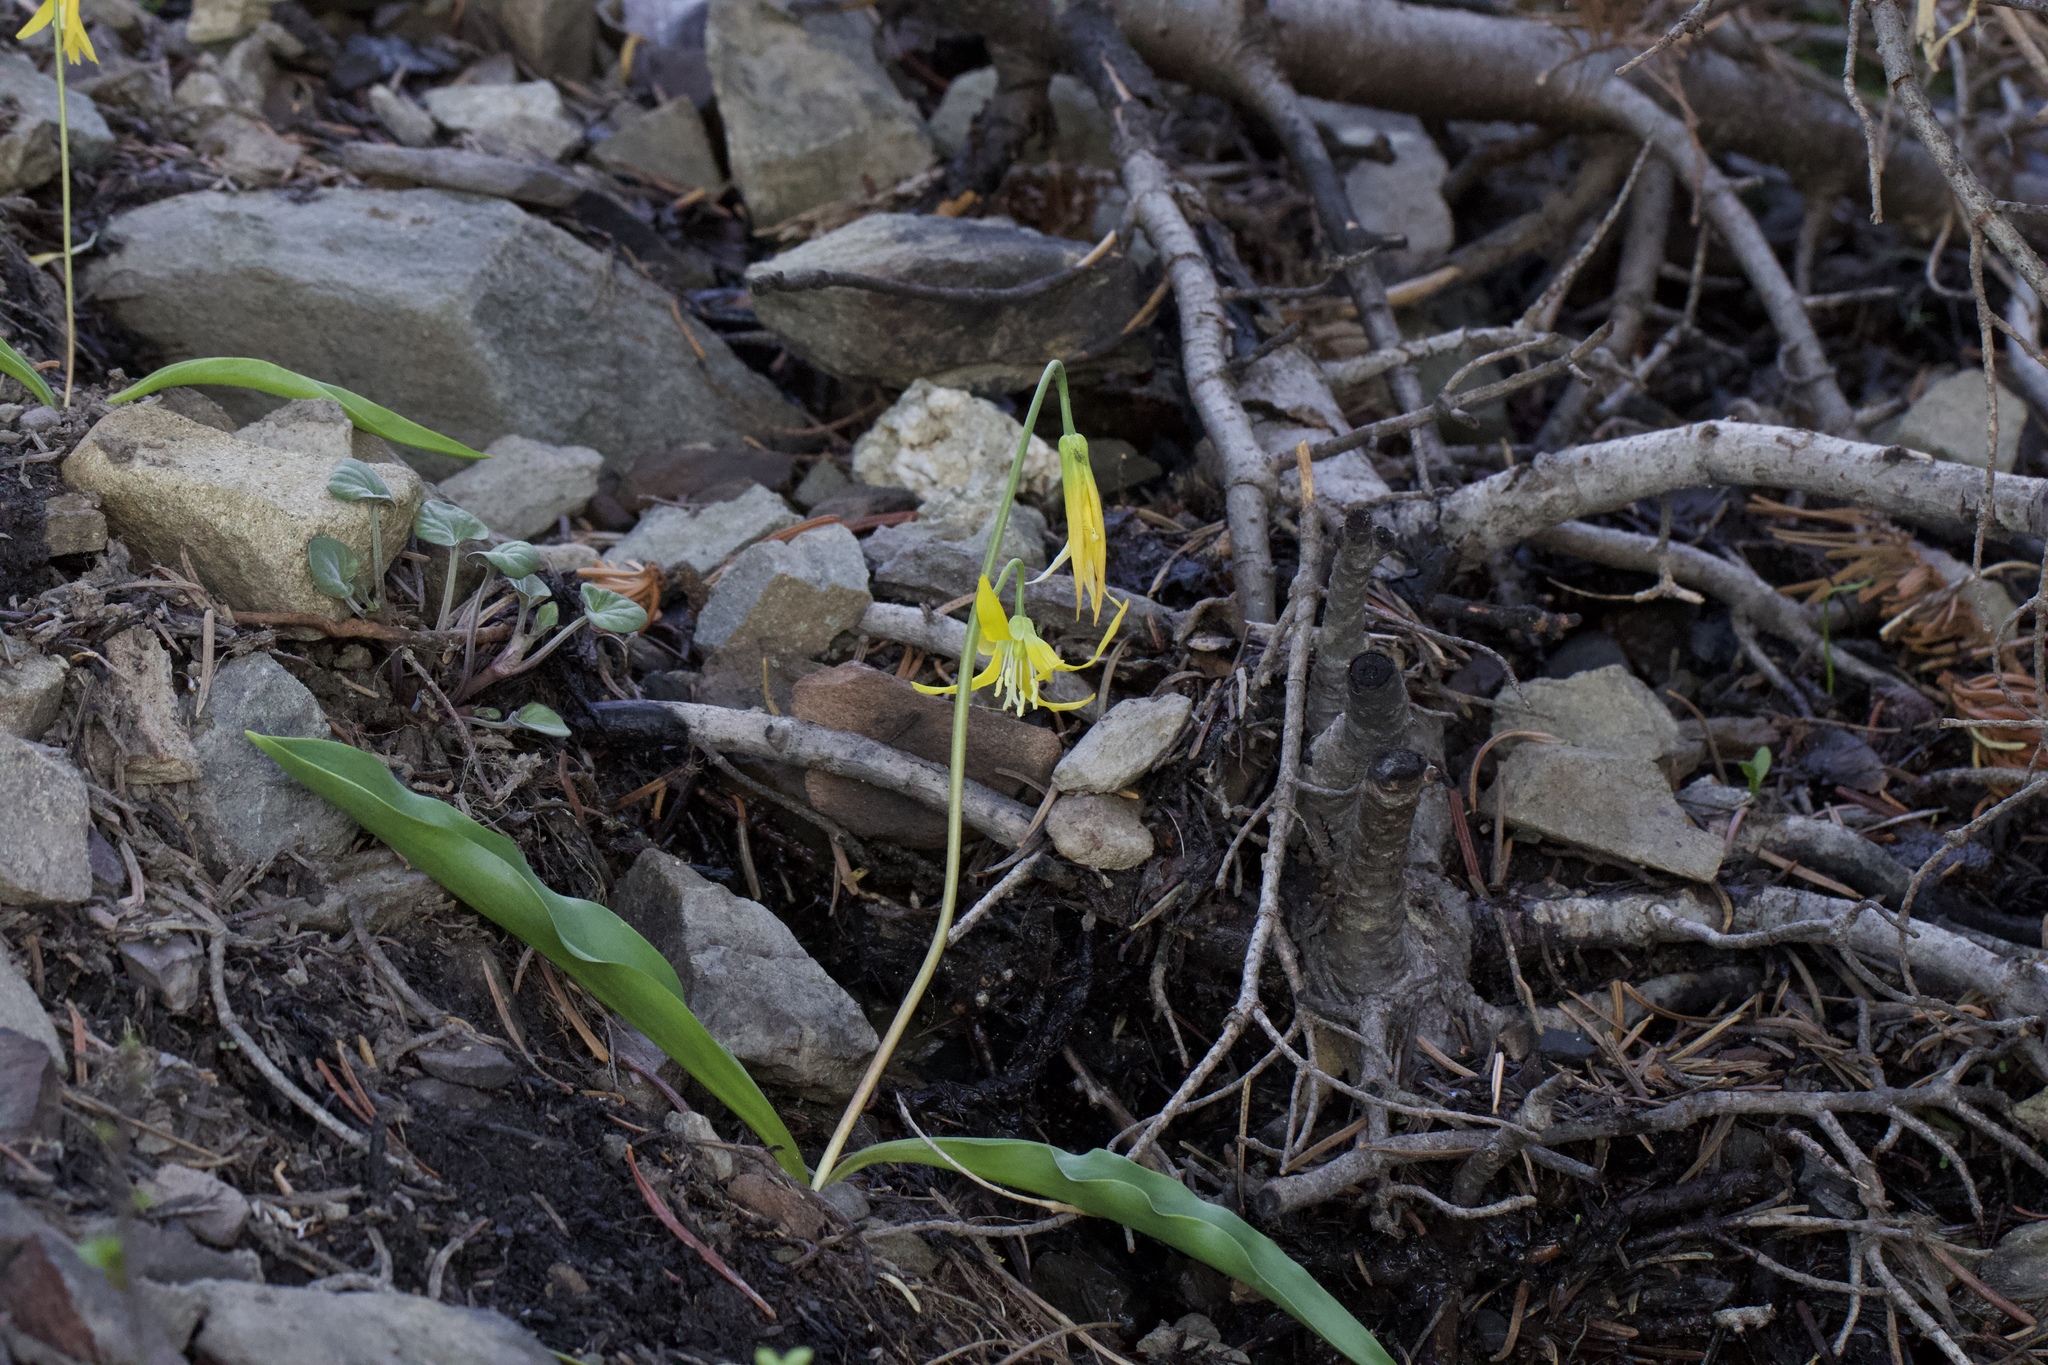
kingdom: Plantae
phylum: Tracheophyta
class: Liliopsida
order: Liliales
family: Liliaceae
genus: Erythronium
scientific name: Erythronium grandiflorum
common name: Avalanche-lily
